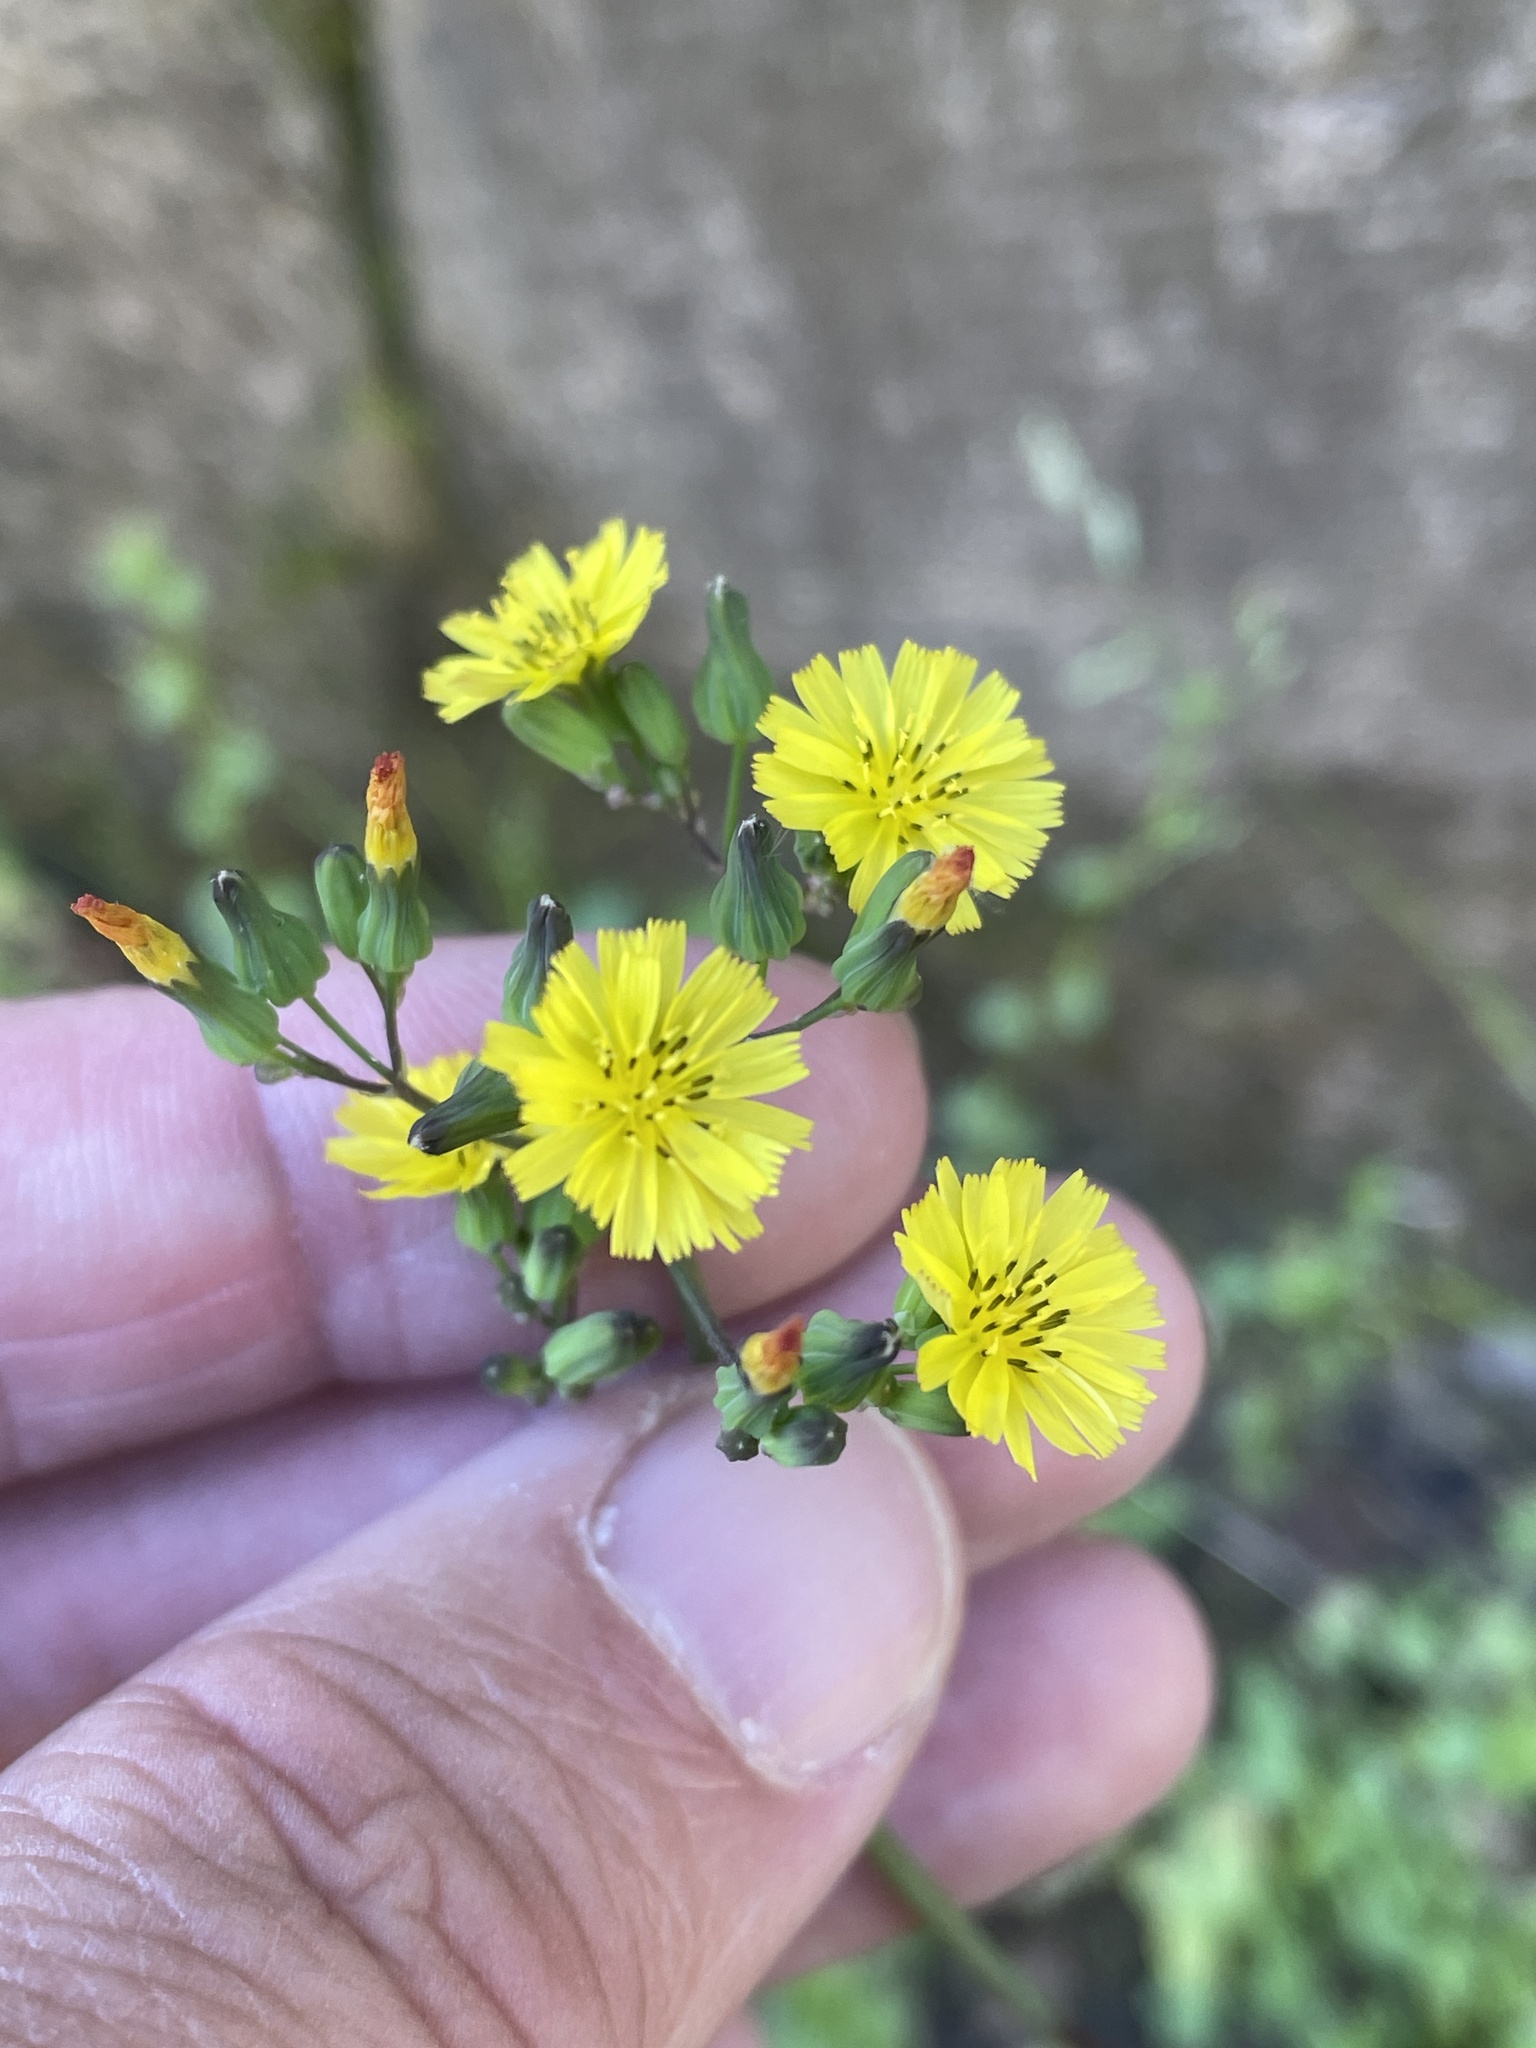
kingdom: Plantae
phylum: Tracheophyta
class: Magnoliopsida
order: Asterales
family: Asteraceae
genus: Youngia
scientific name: Youngia japonica
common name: Oriental false hawksbeard
